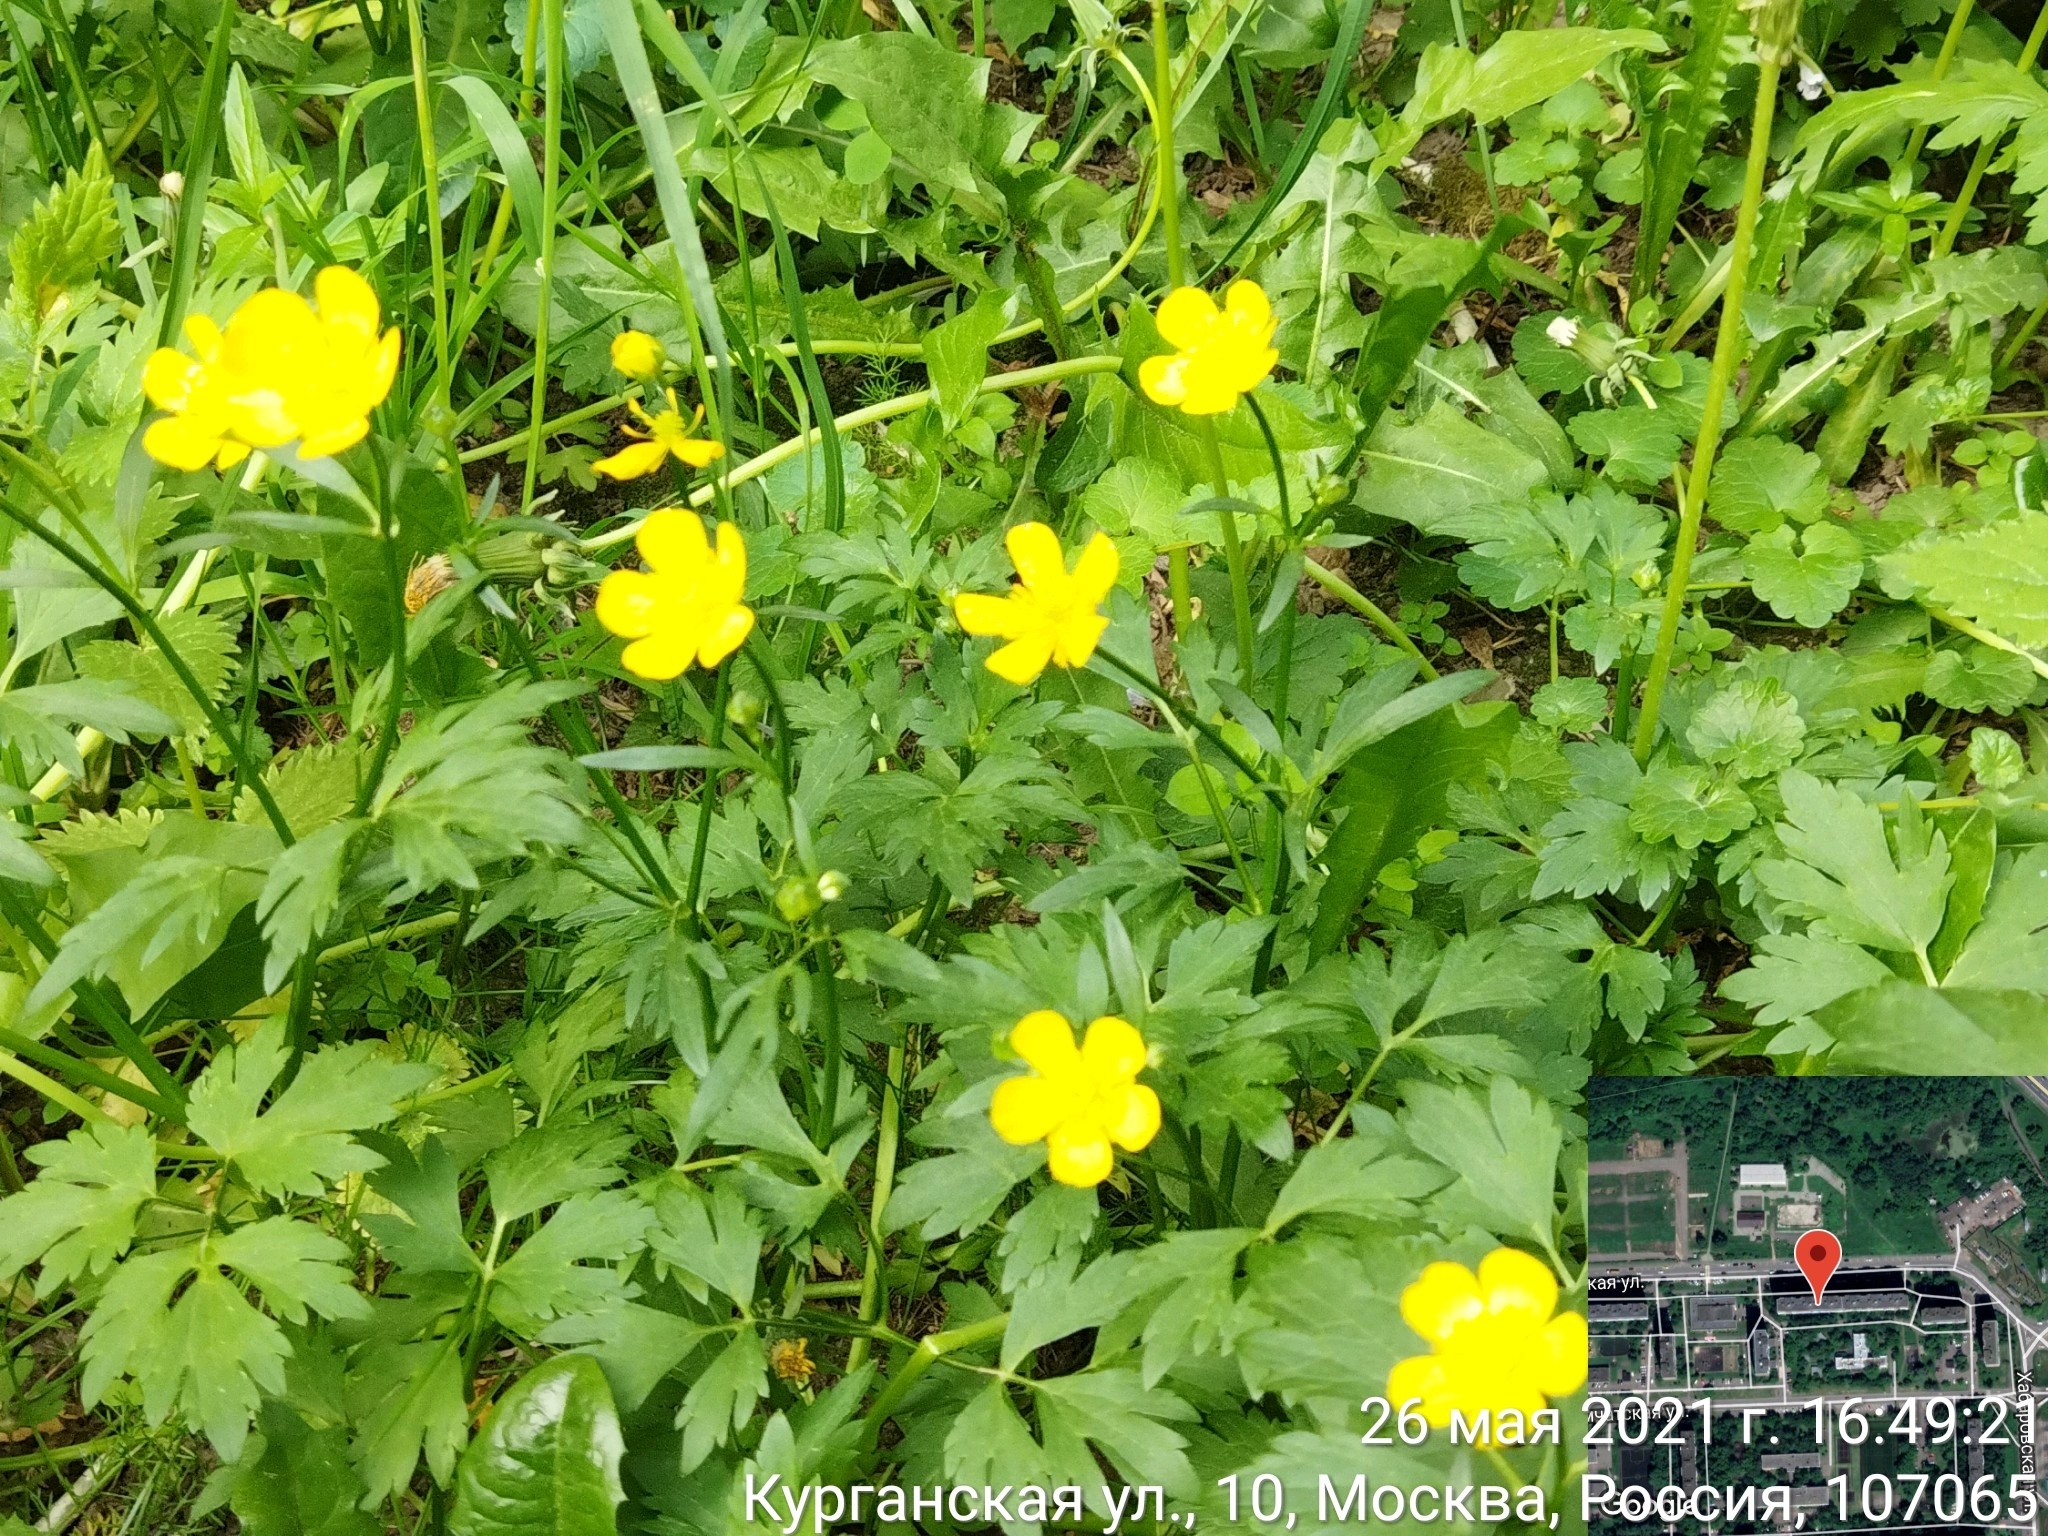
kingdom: Plantae
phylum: Tracheophyta
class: Magnoliopsida
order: Ranunculales
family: Ranunculaceae
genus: Ranunculus
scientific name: Ranunculus repens
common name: Creeping buttercup
